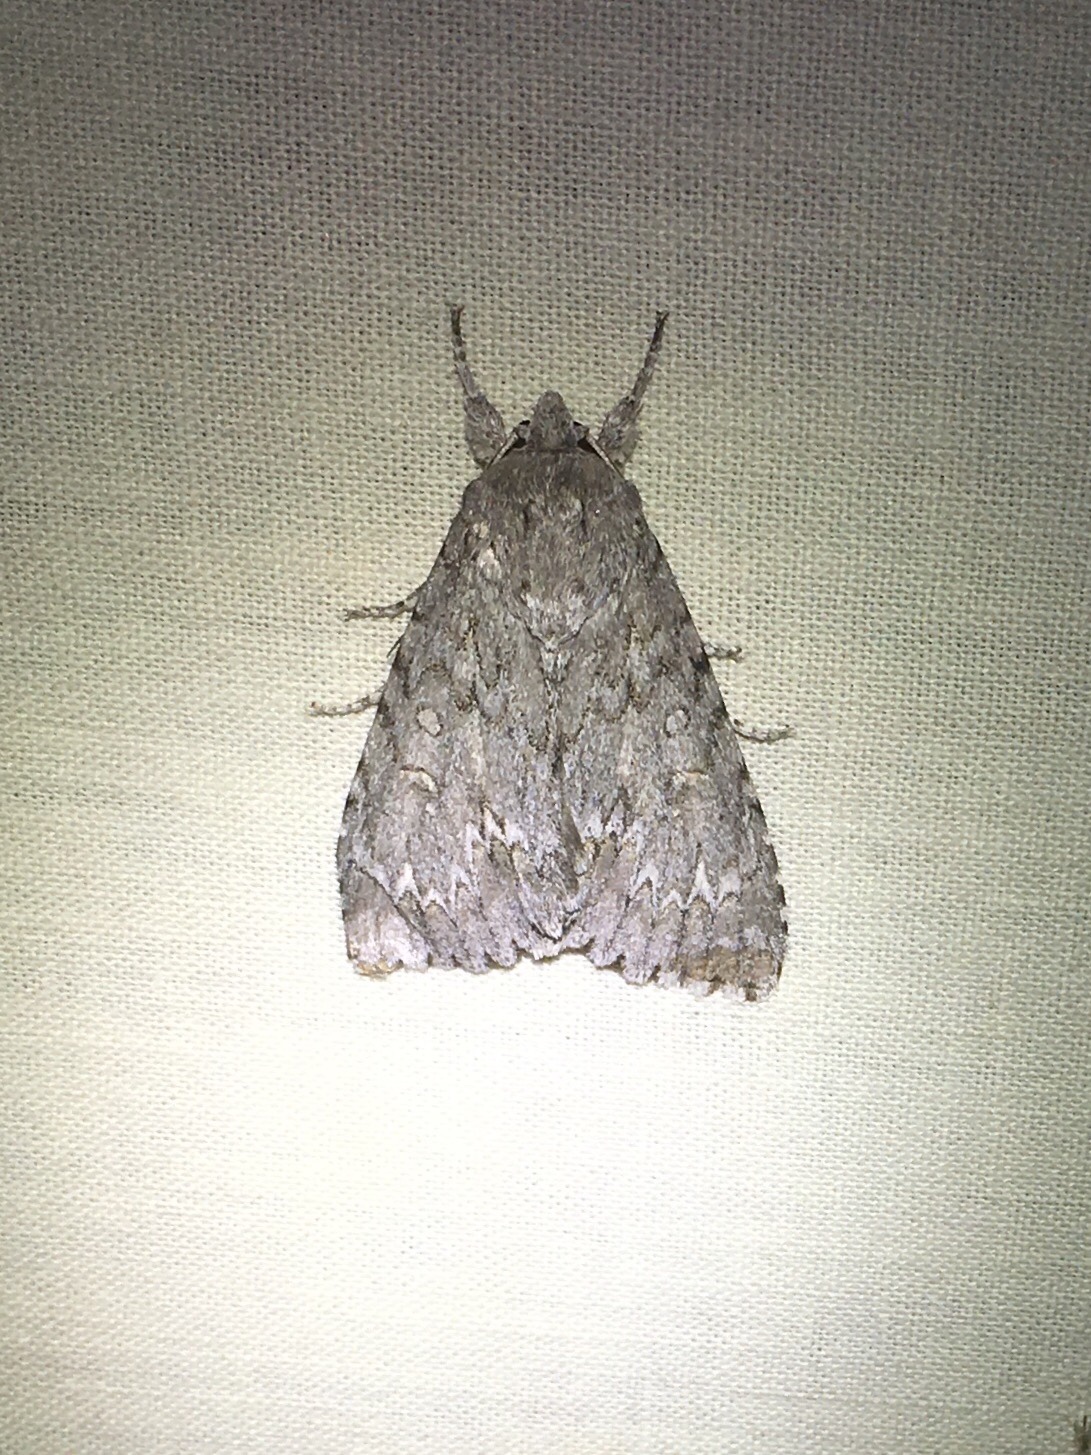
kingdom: Animalia
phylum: Arthropoda
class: Insecta
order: Lepidoptera
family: Noctuidae
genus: Acronicta
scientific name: Acronicta americana
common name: American dagger
